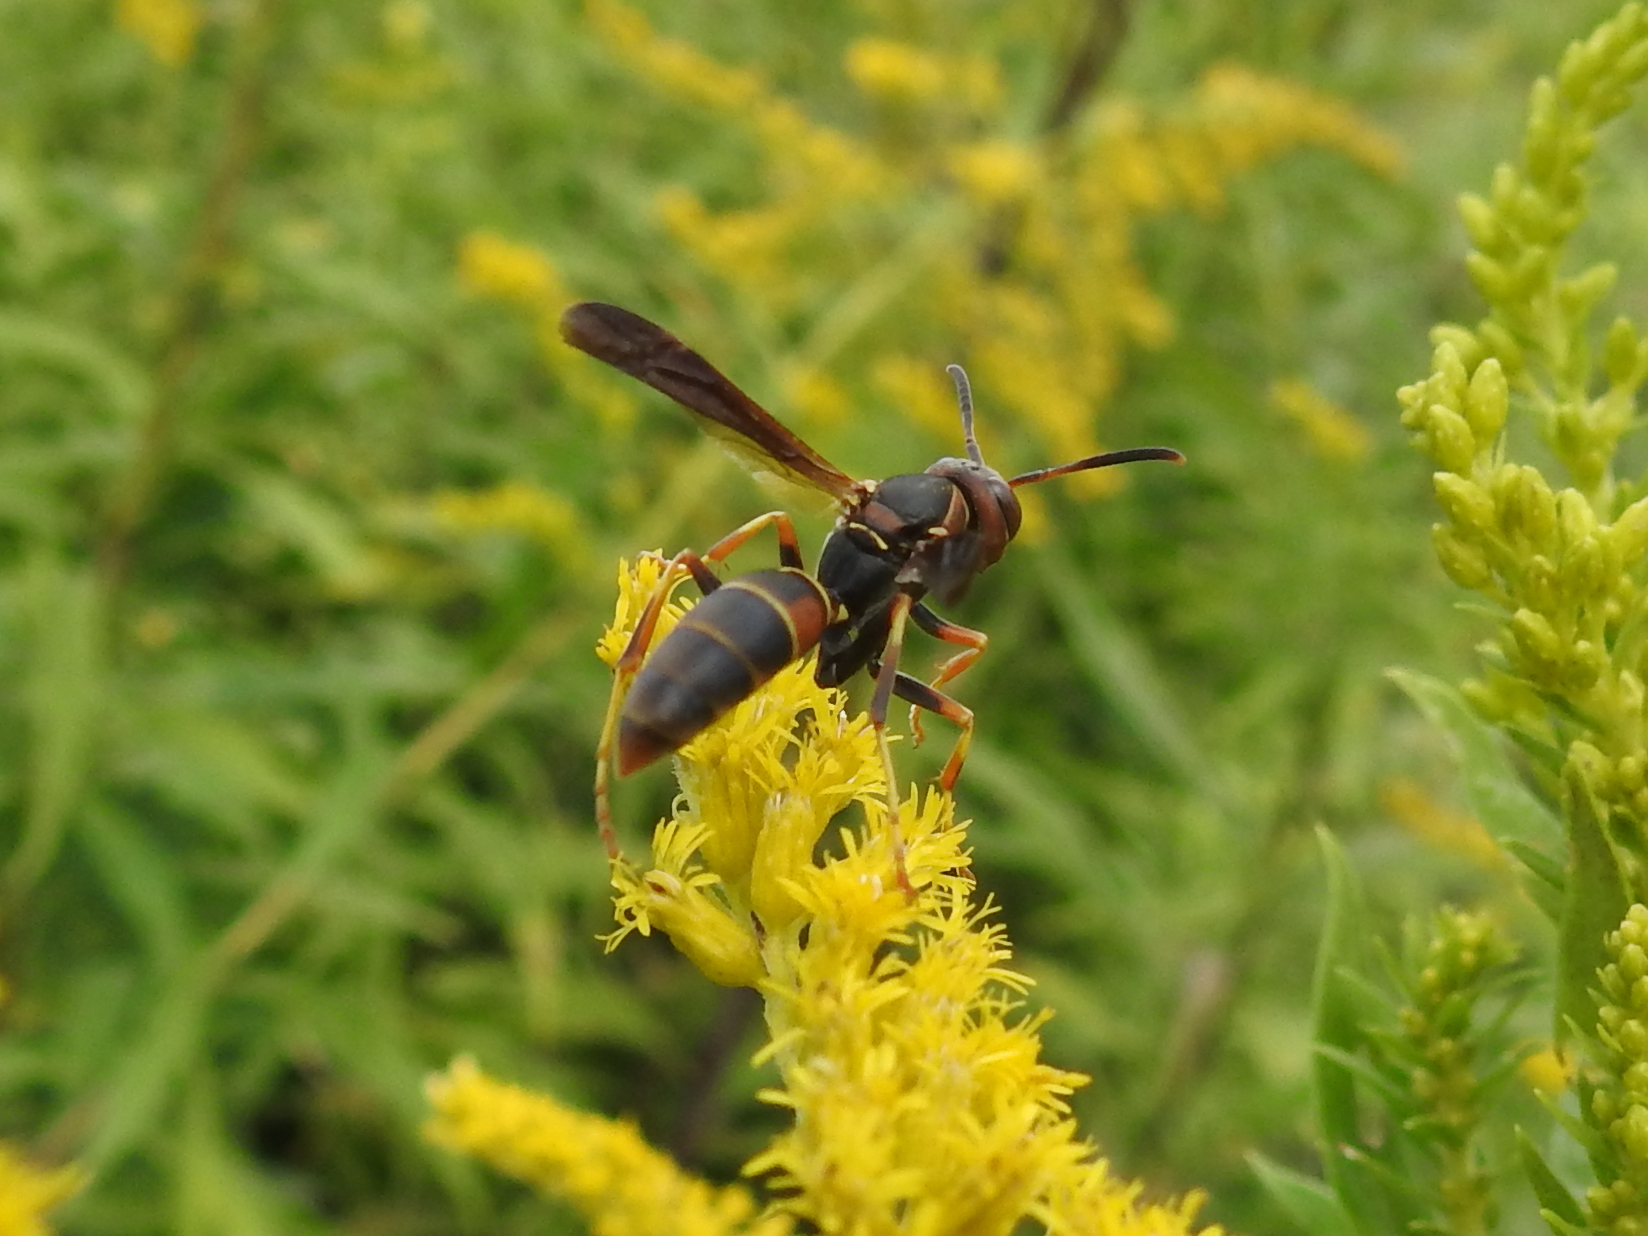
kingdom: Animalia
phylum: Arthropoda
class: Insecta
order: Hymenoptera
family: Eumenidae
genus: Polistes
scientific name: Polistes fuscatus
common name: Dark paper wasp
